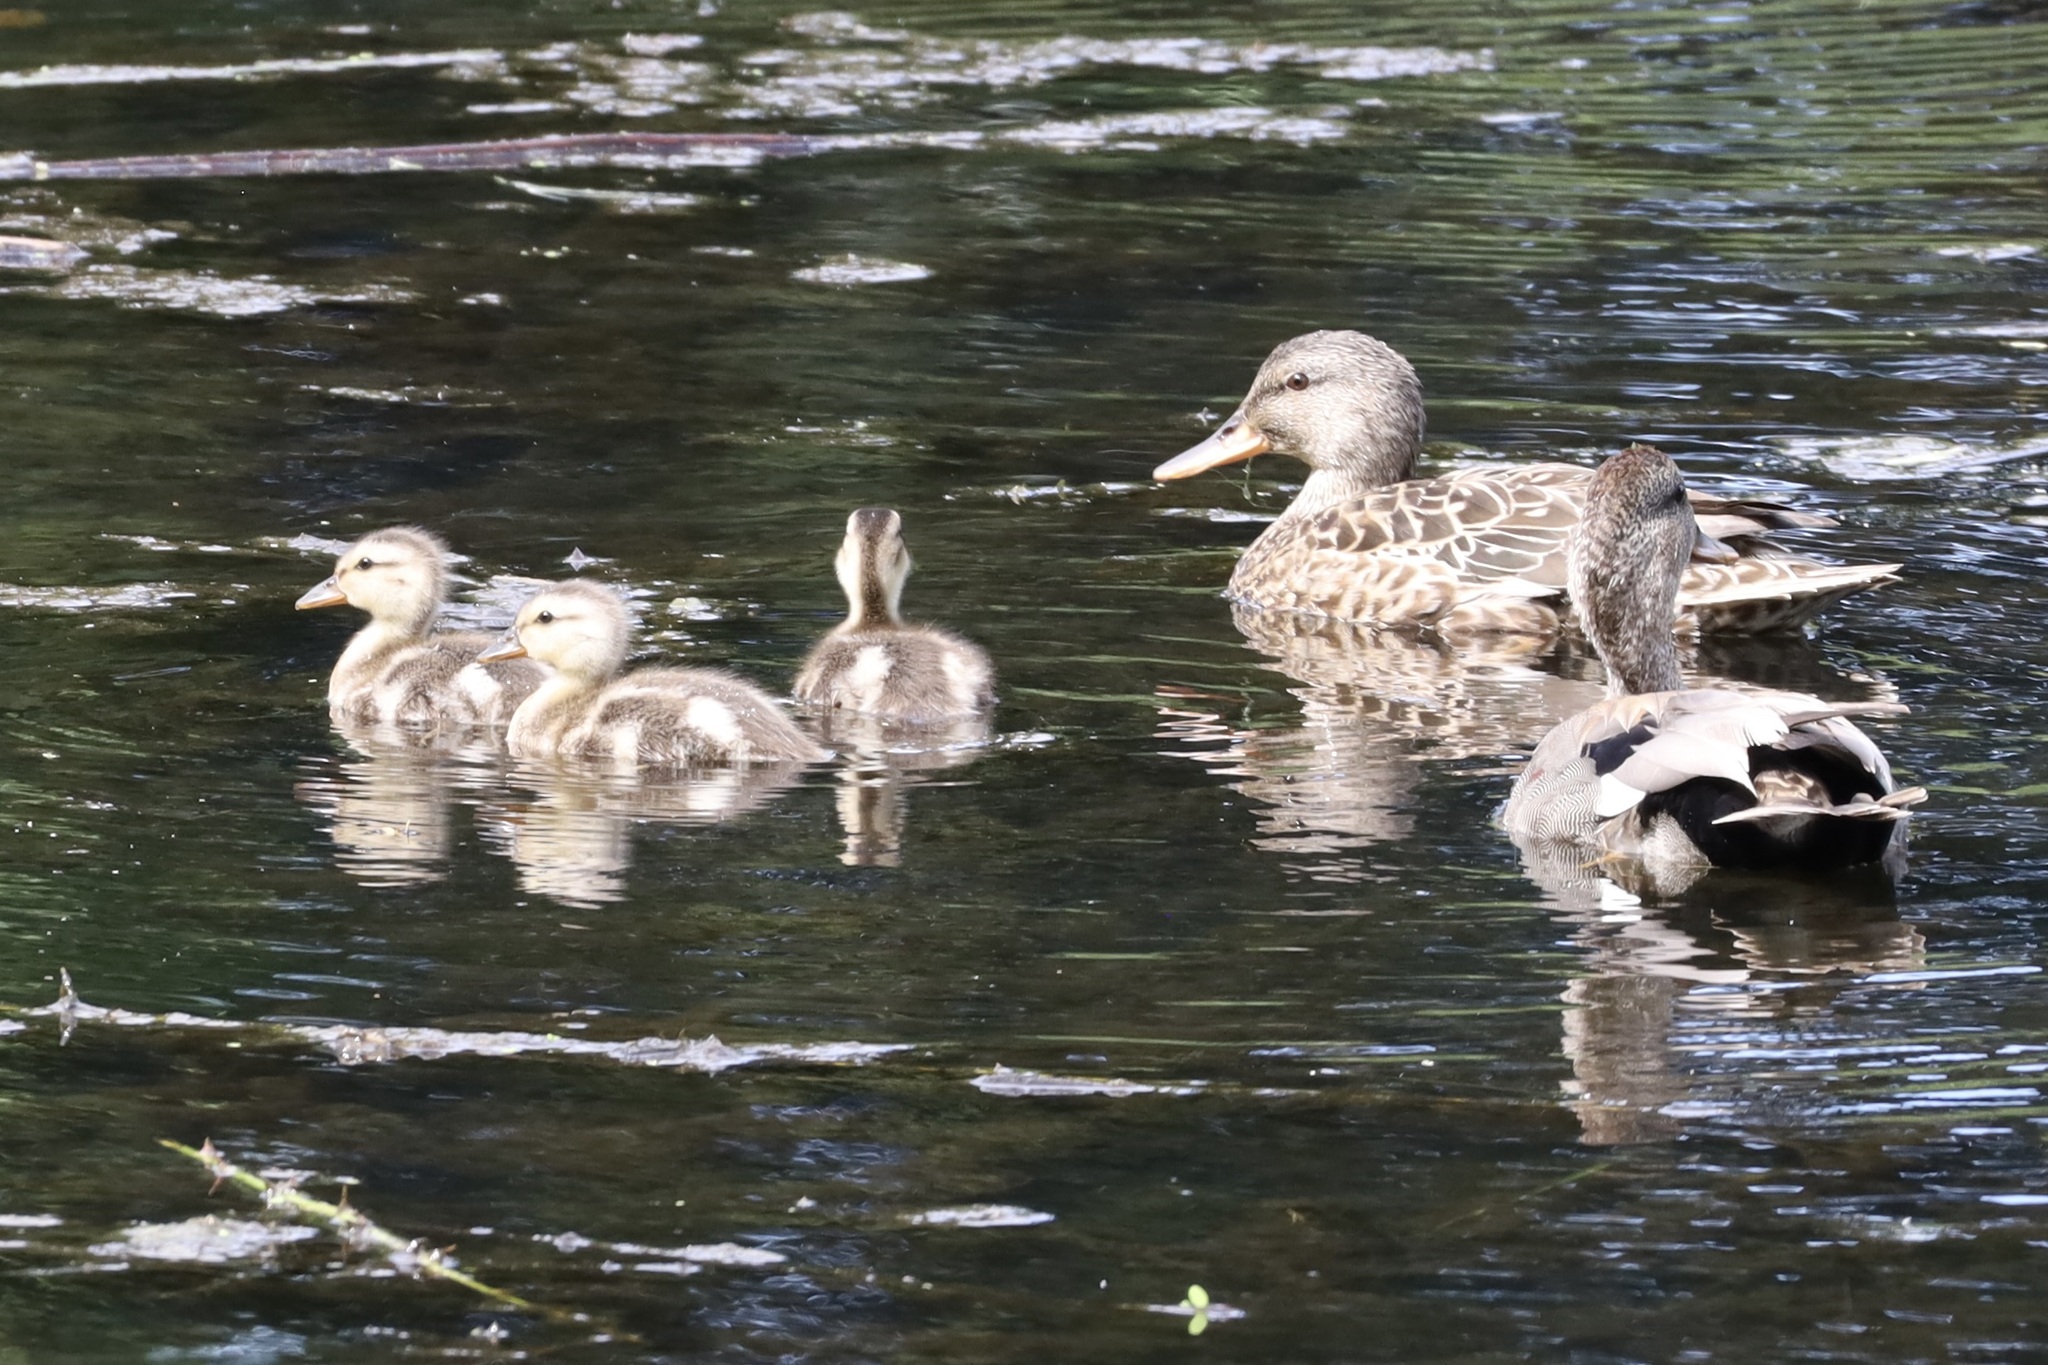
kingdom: Animalia
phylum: Chordata
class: Aves
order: Anseriformes
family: Anatidae
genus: Mareca
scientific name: Mareca strepera
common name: Gadwall
